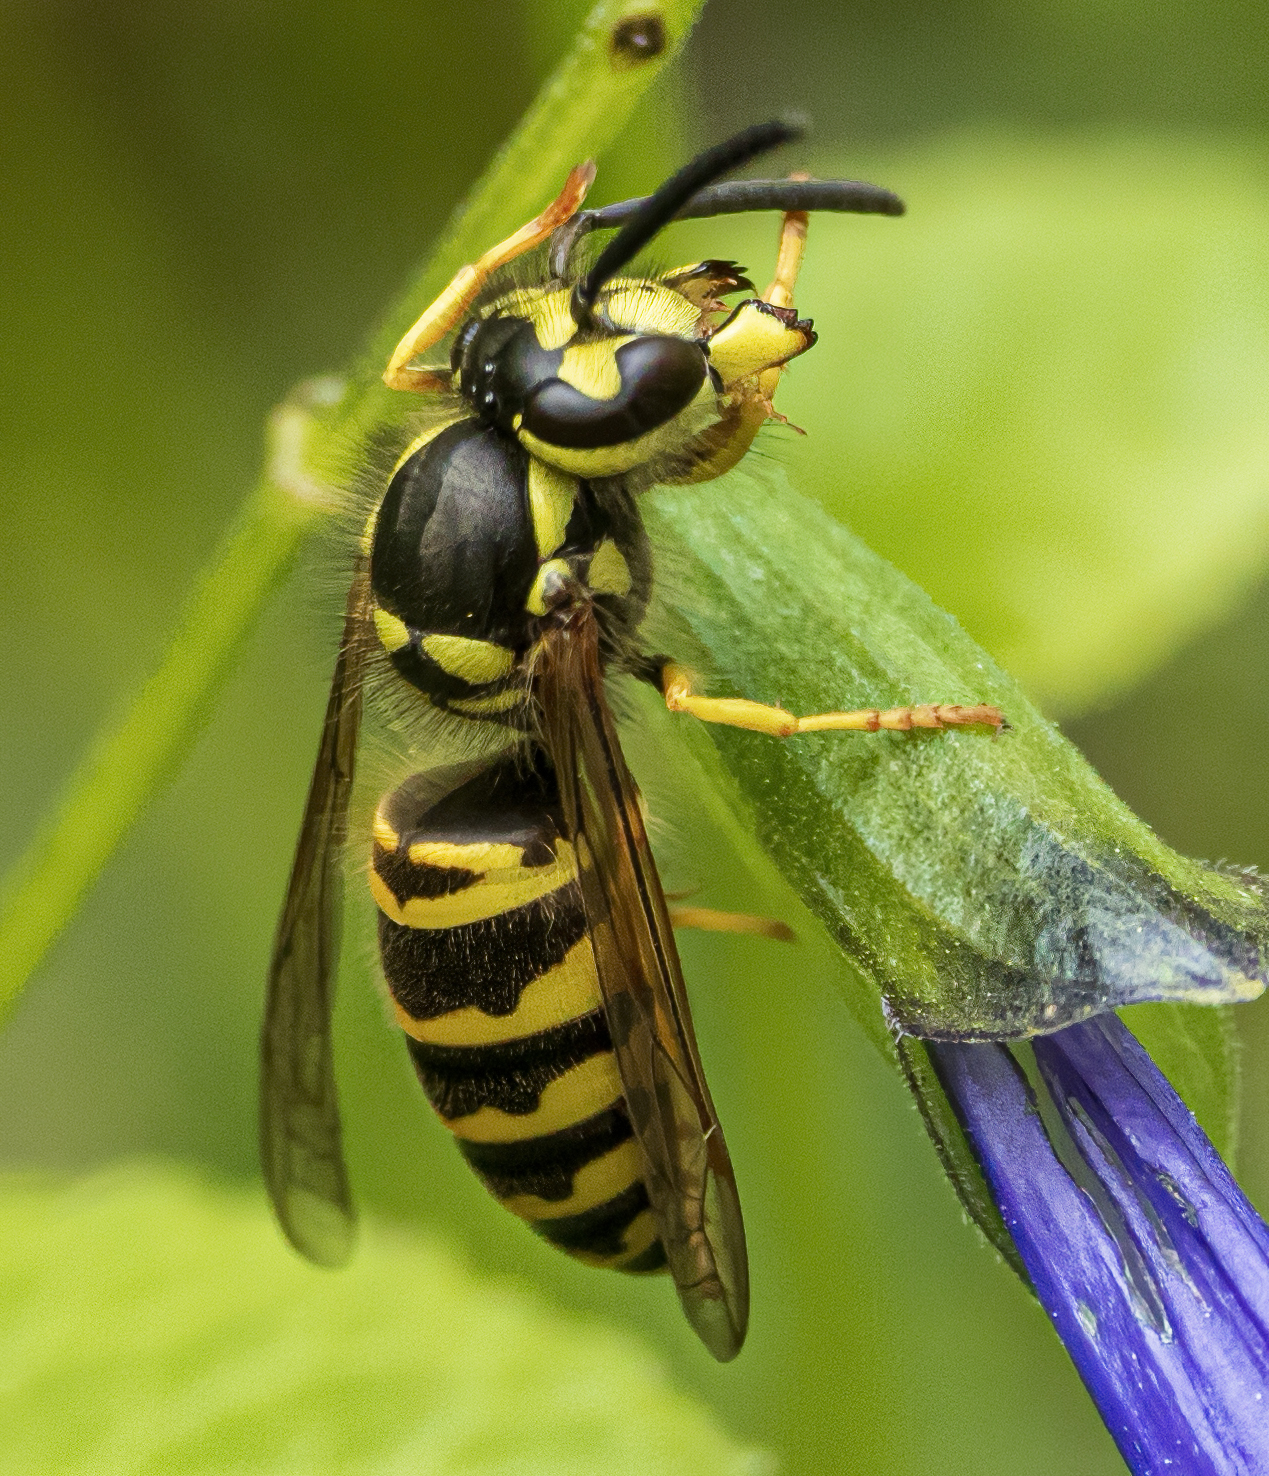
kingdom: Animalia
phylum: Arthropoda
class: Insecta
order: Hymenoptera
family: Vespidae
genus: Vespula
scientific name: Vespula maculifrons
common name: Eastern yellowjacket
